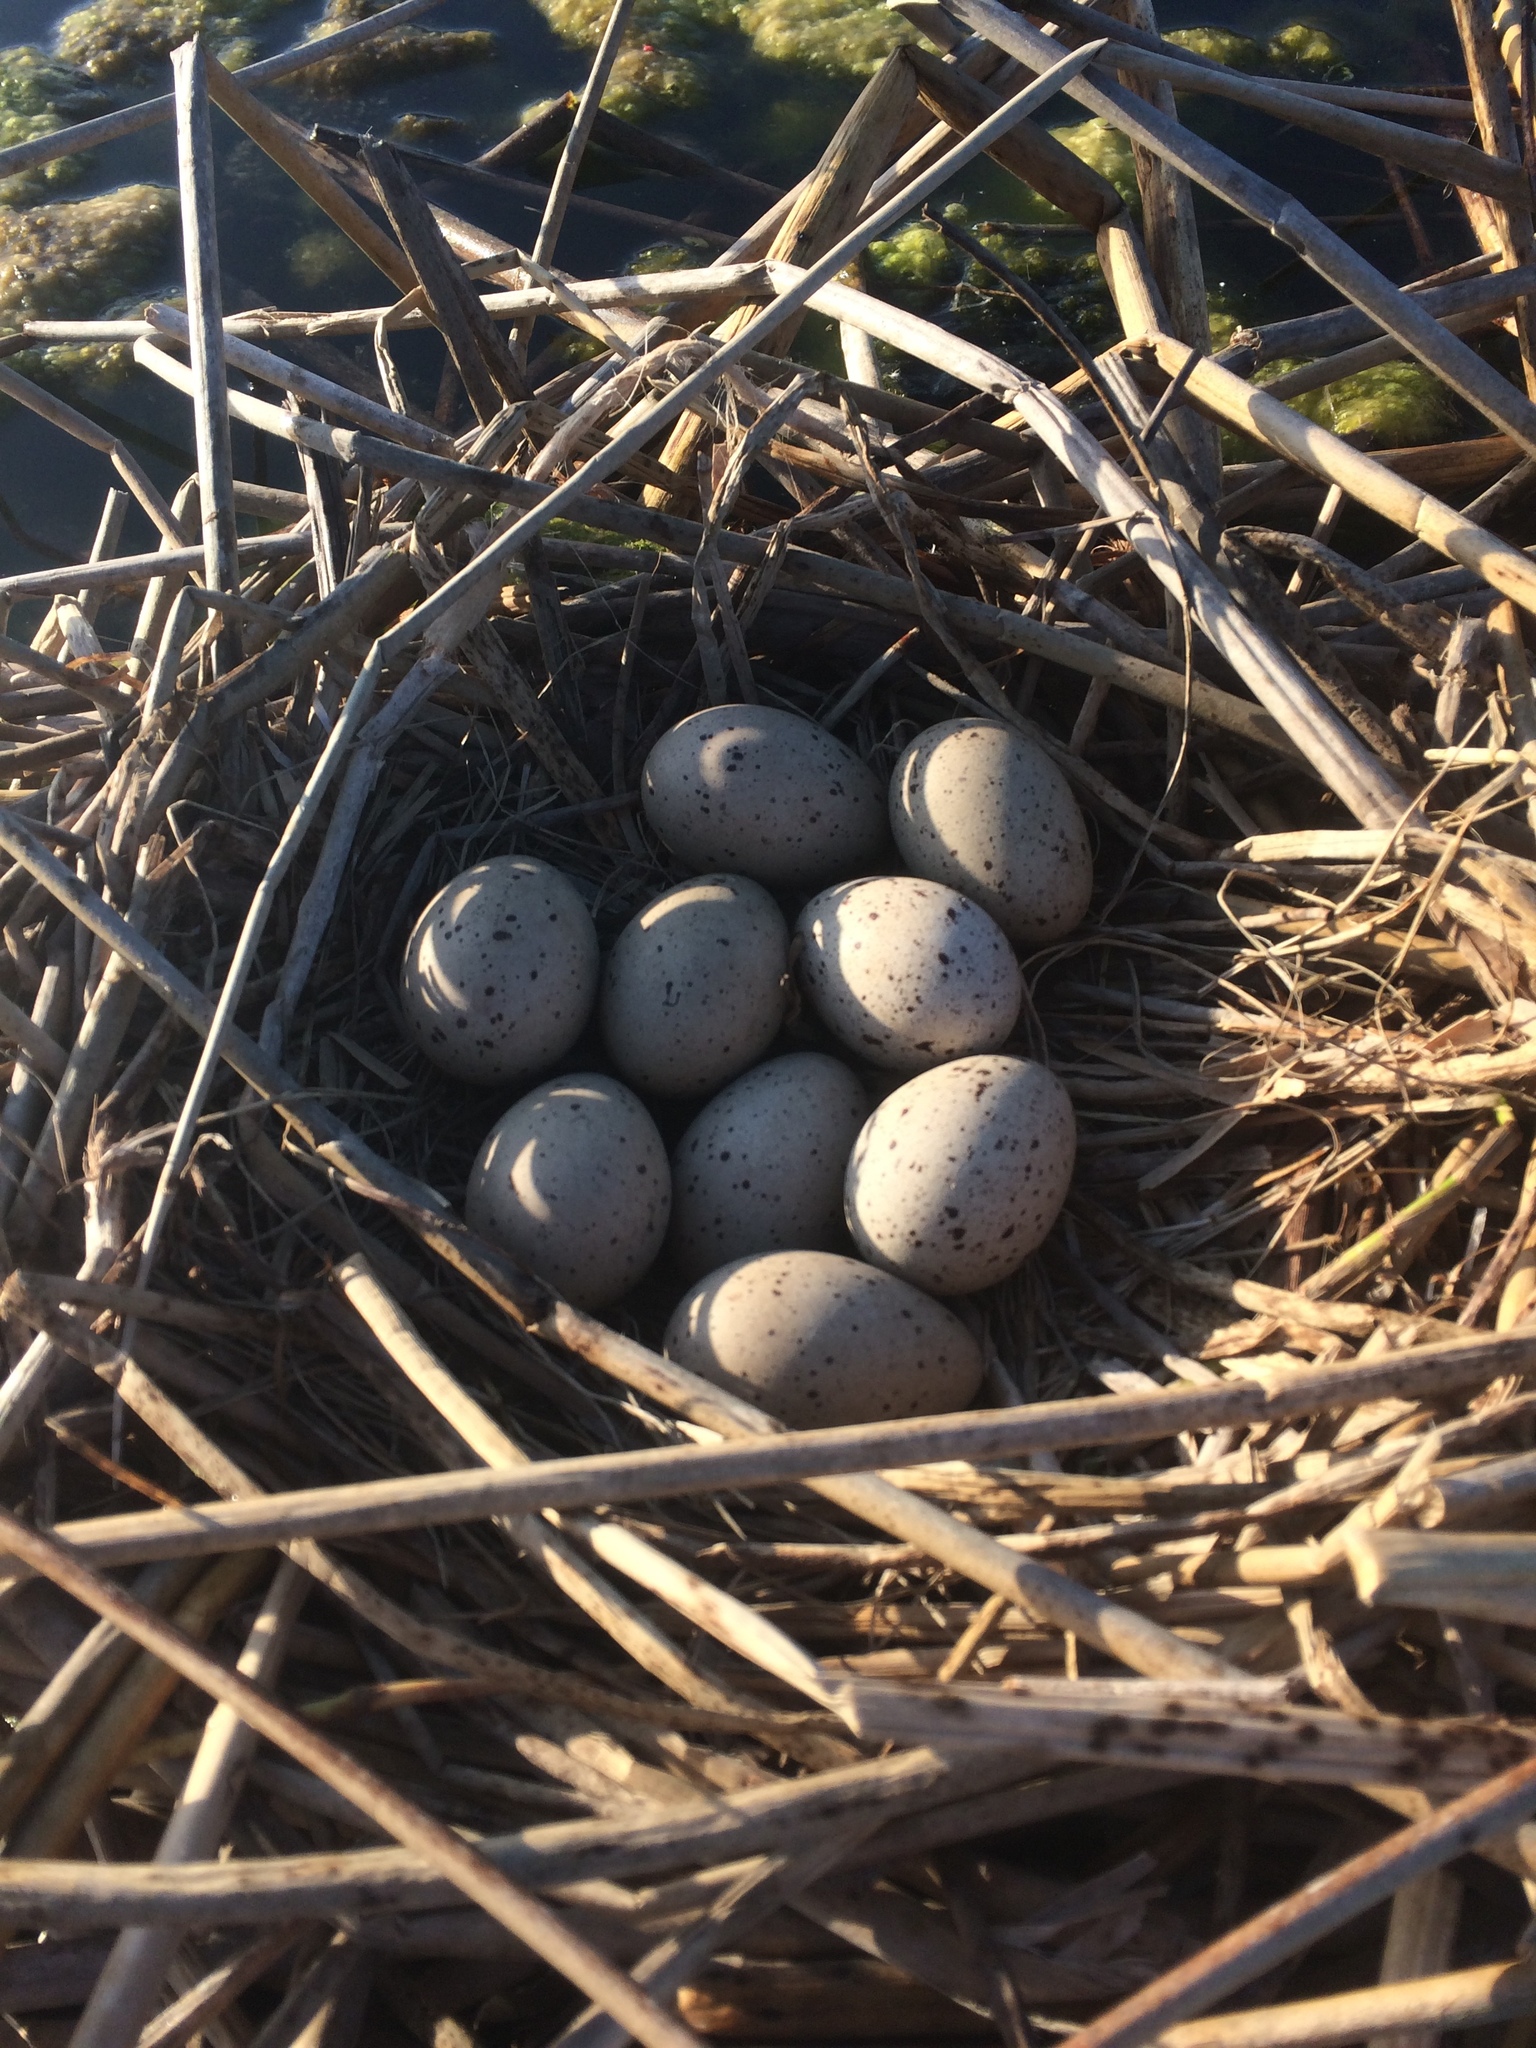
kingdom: Animalia
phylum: Chordata
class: Aves
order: Gruiformes
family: Rallidae
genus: Fulica
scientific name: Fulica cristata
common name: Red-knobbed coot
